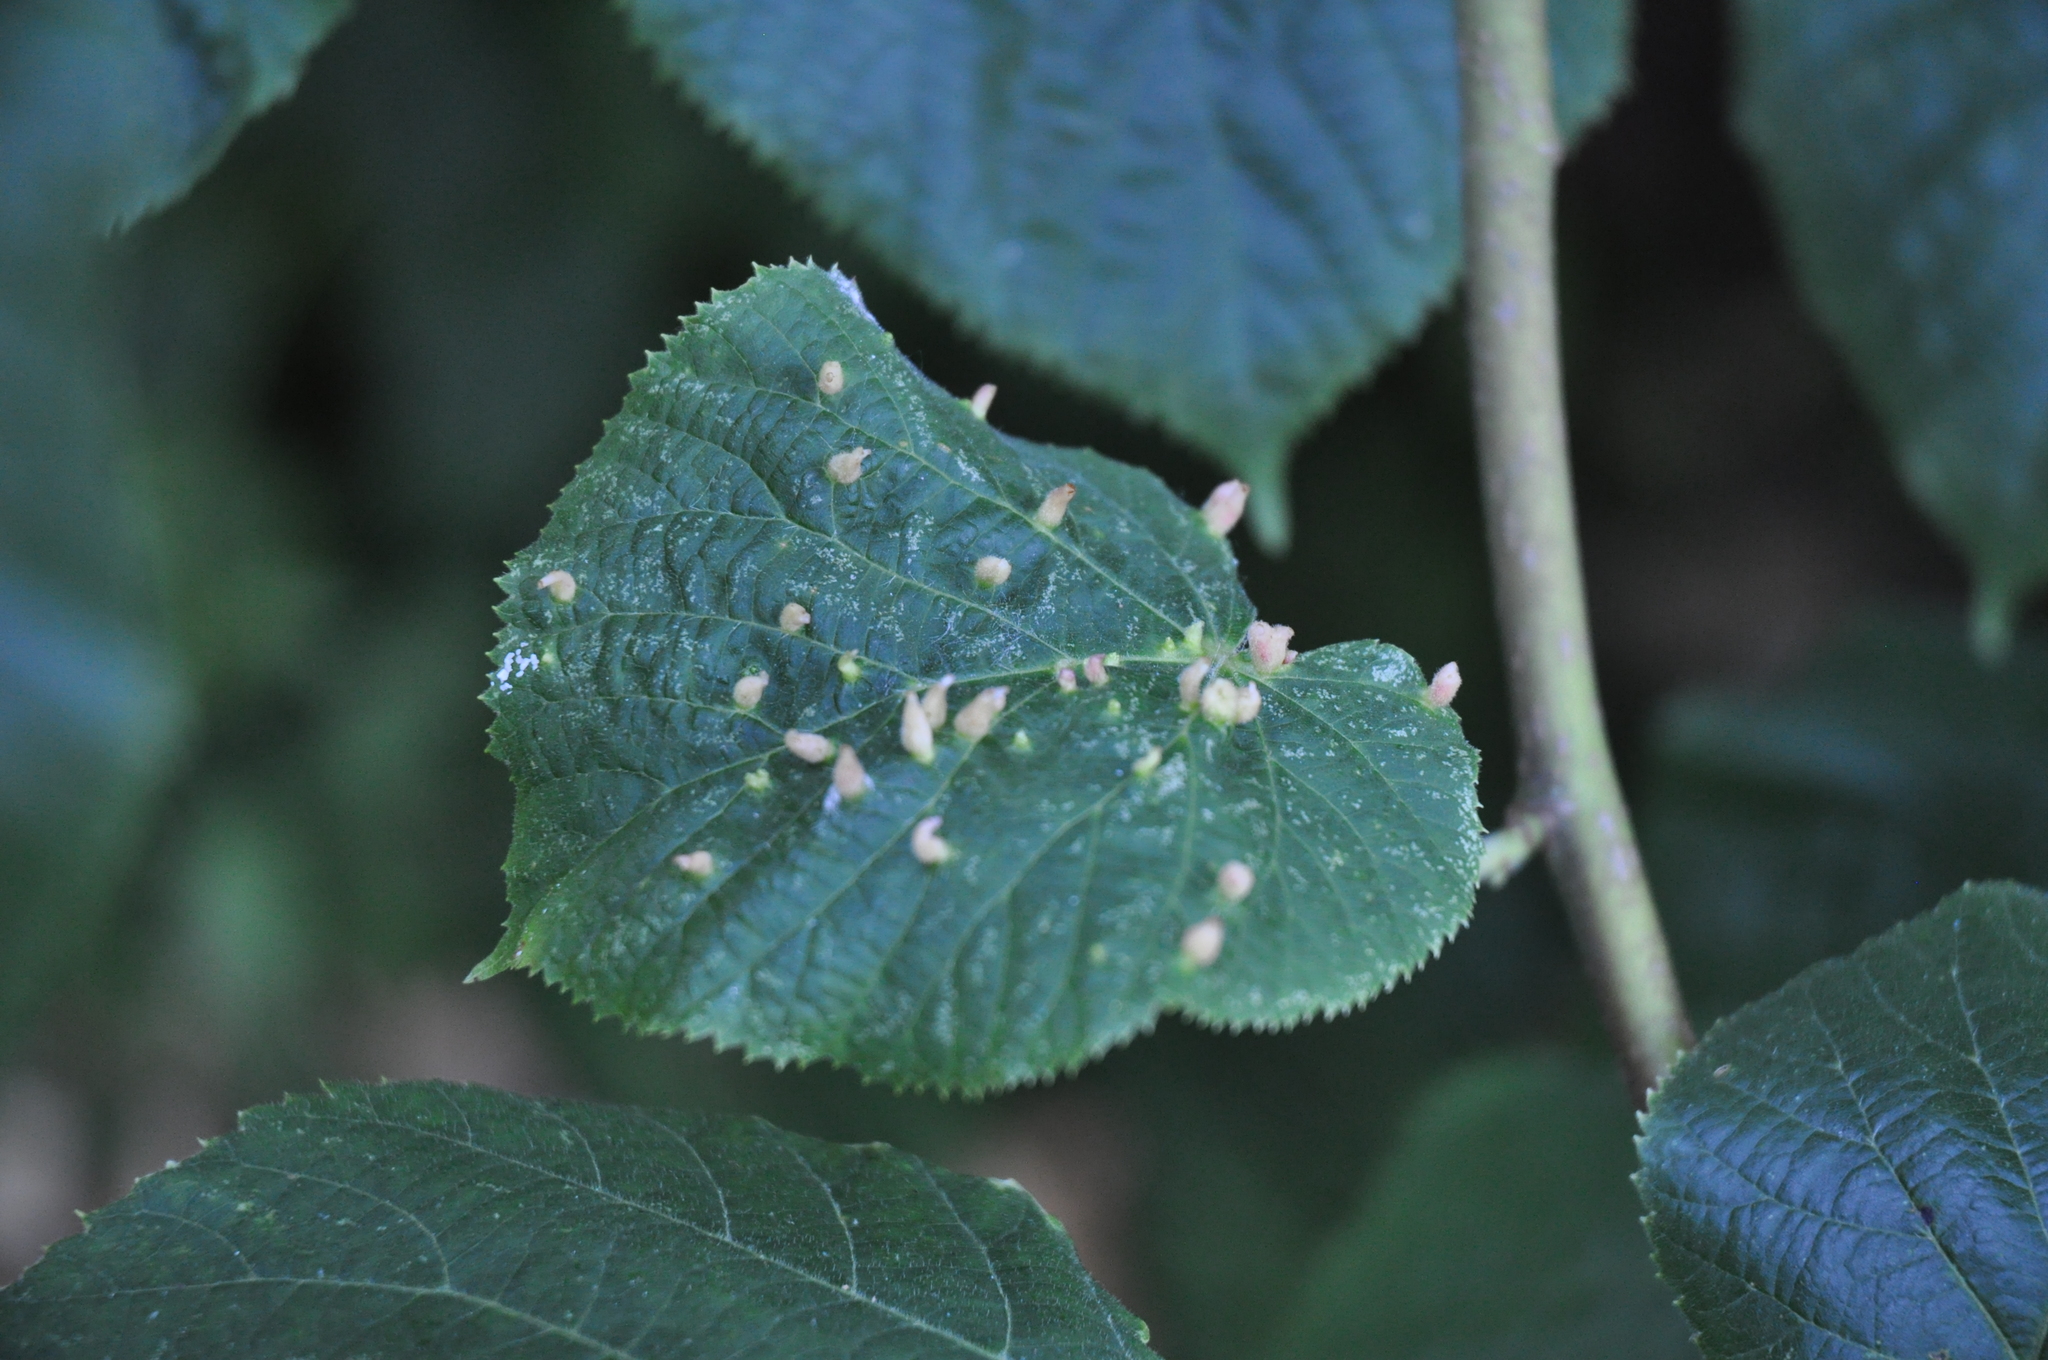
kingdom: Animalia
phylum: Arthropoda
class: Arachnida
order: Trombidiformes
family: Eriophyidae
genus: Eriophyes
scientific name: Eriophyes tiliae
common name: Red nail gall mite
